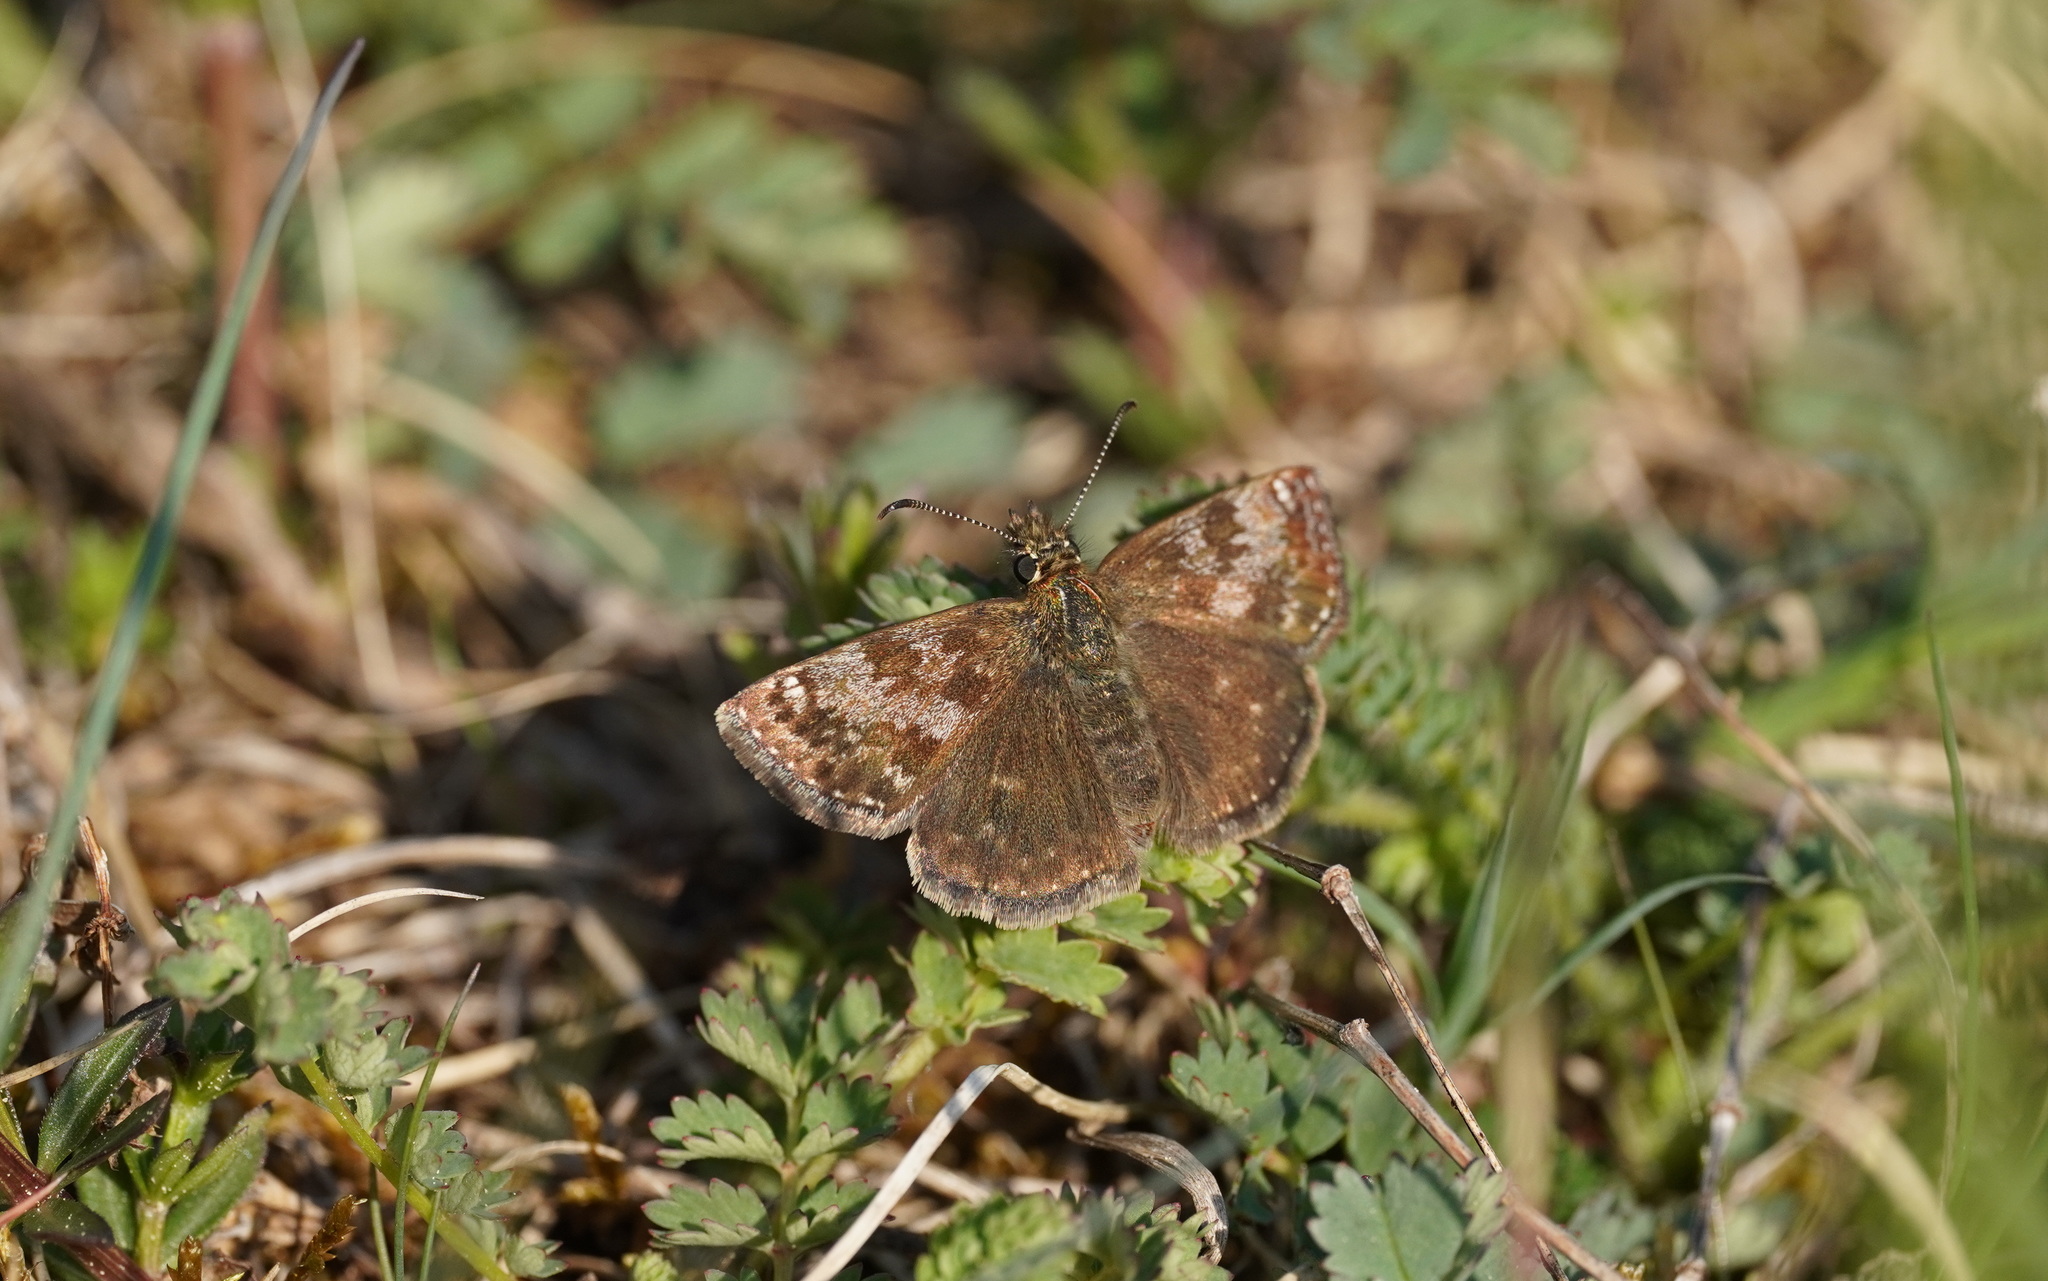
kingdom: Animalia
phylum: Arthropoda
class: Insecta
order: Lepidoptera
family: Hesperiidae
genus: Erynnis
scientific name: Erynnis tages
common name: Dingy skipper
